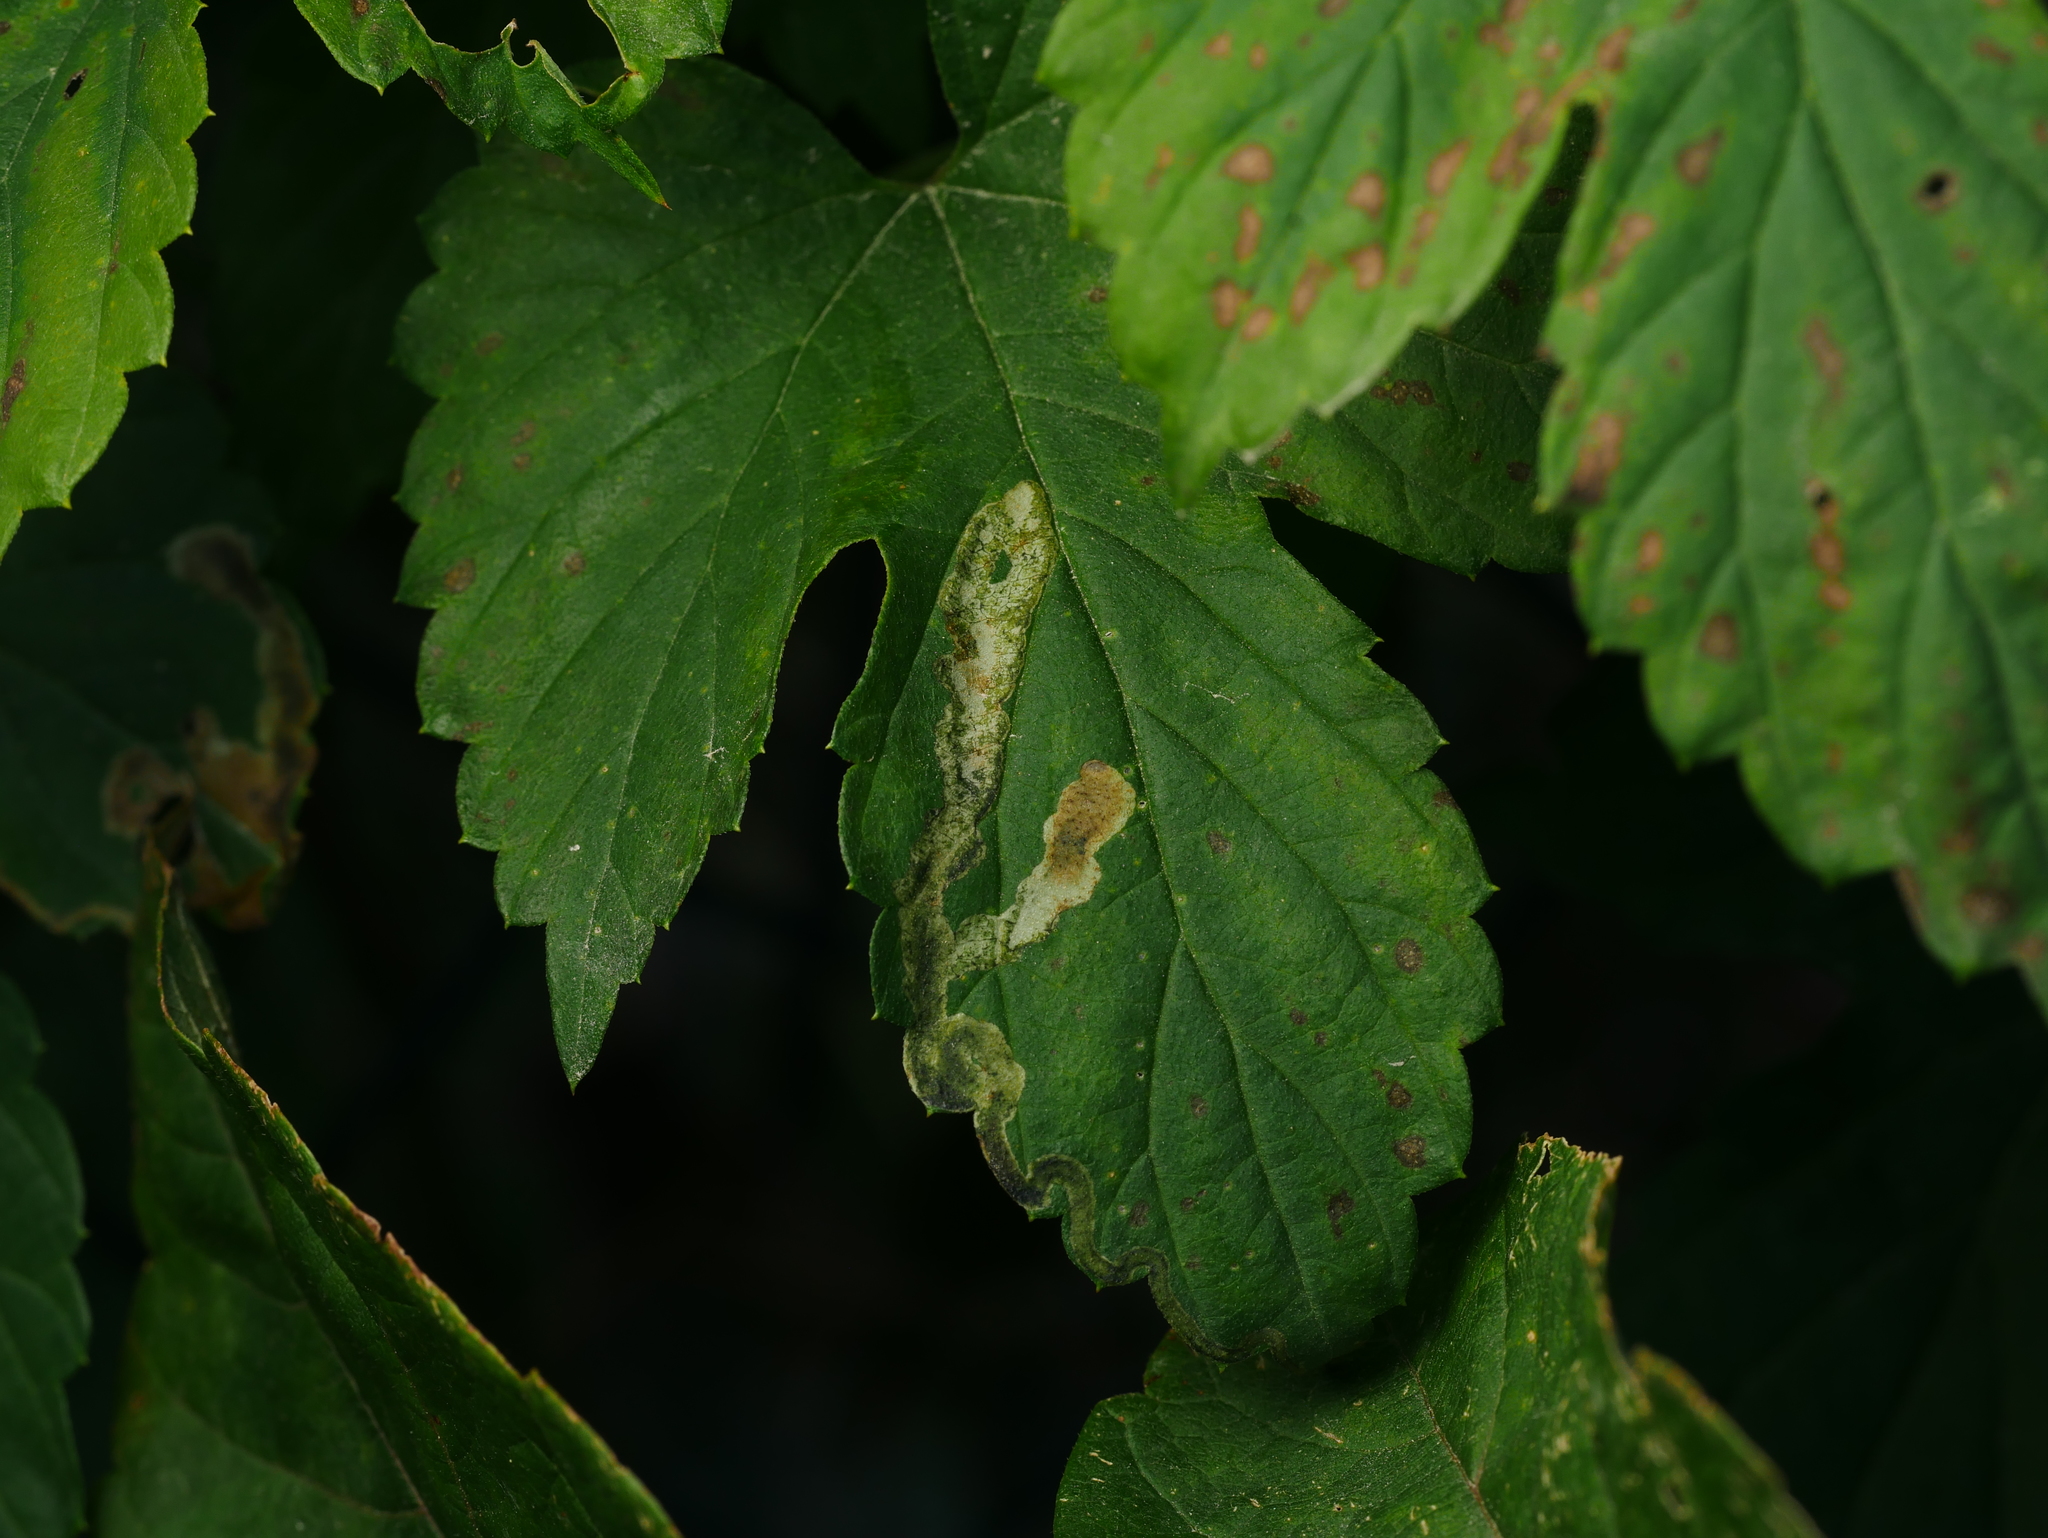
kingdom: Plantae
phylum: Tracheophyta
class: Magnoliopsida
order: Rosales
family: Cannabaceae
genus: Humulus
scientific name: Humulus lupulus
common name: Hop
